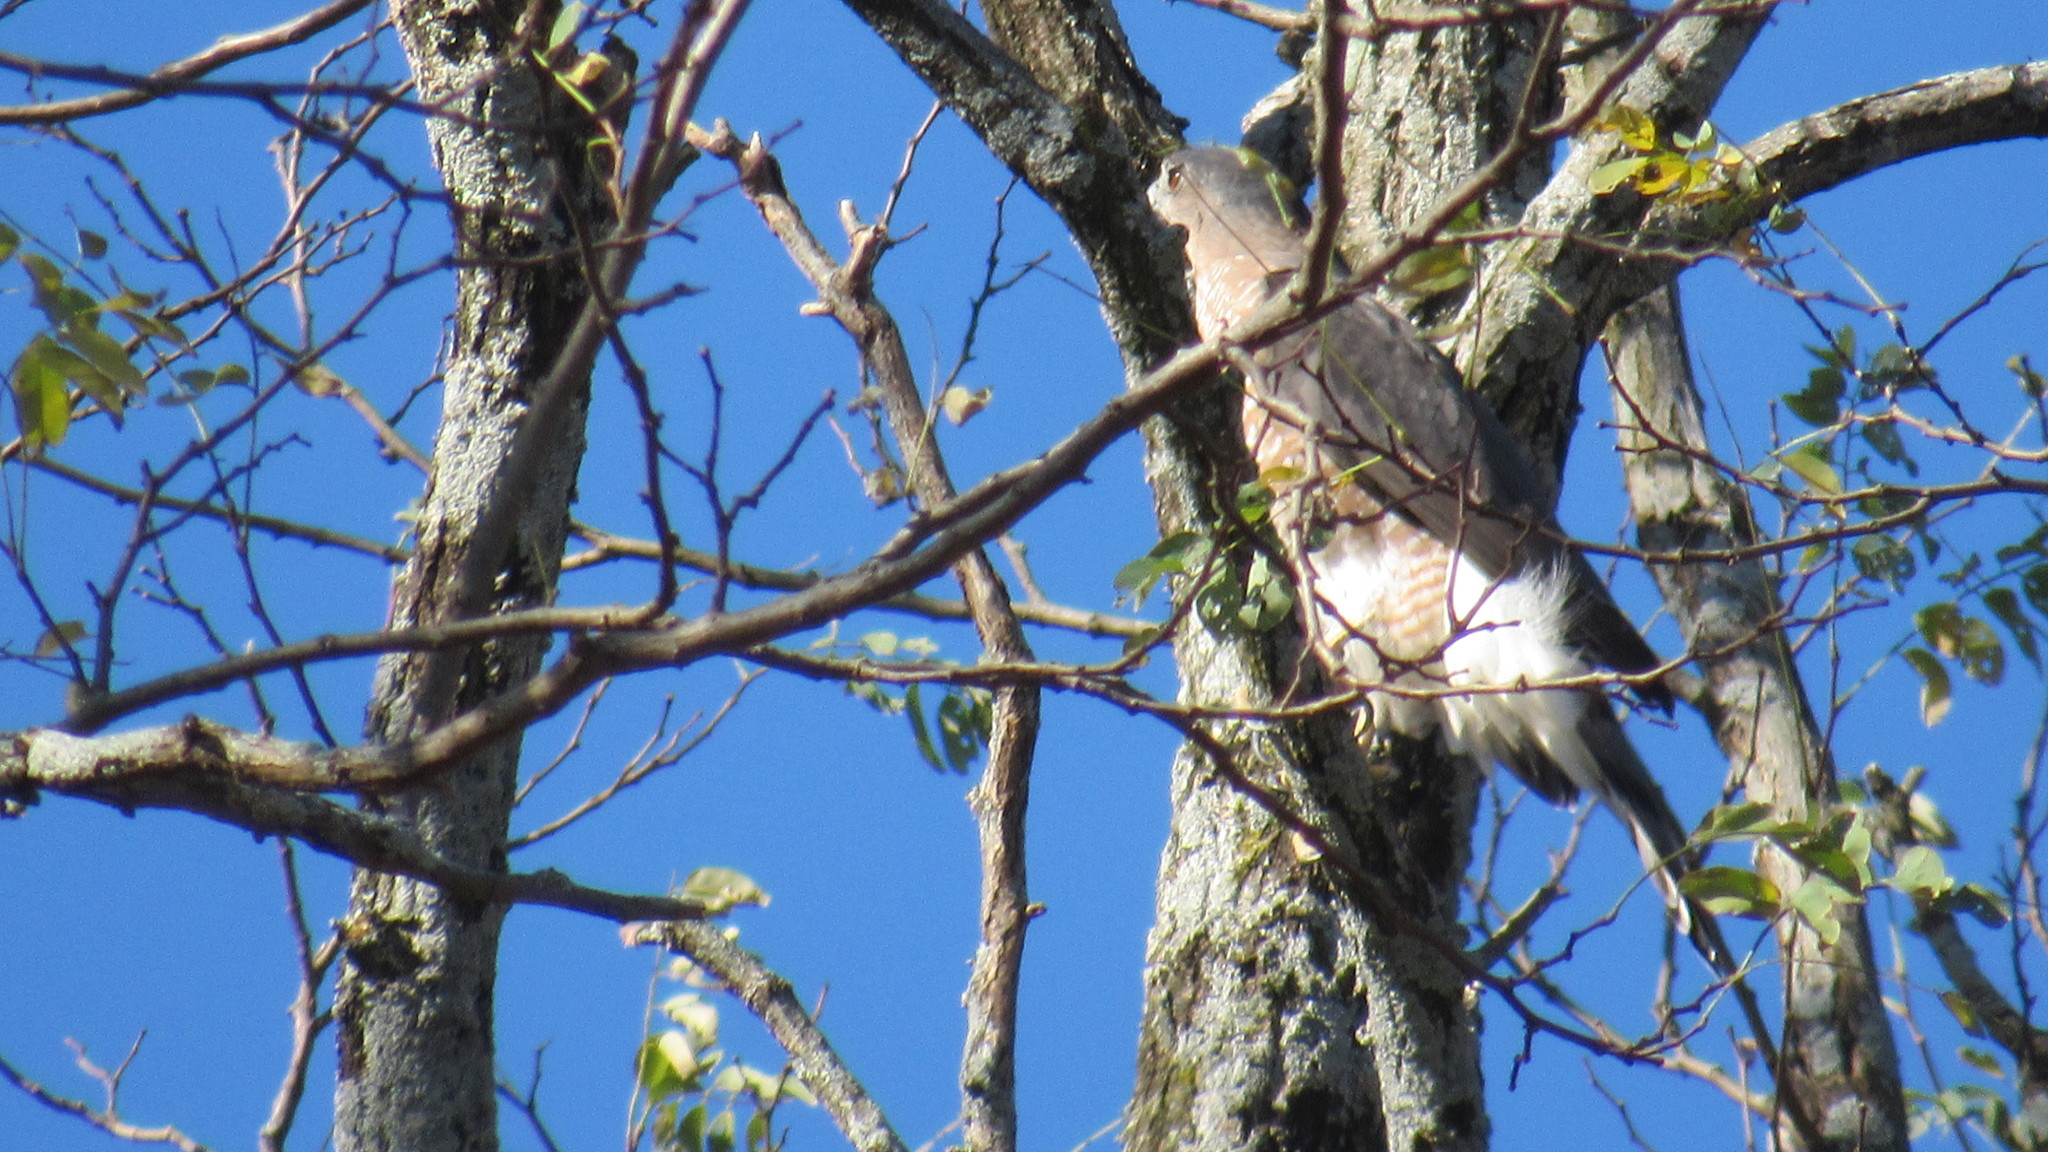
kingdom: Animalia
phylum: Chordata
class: Aves
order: Accipitriformes
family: Accipitridae
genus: Accipiter
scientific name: Accipiter cooperii
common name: Cooper's hawk
